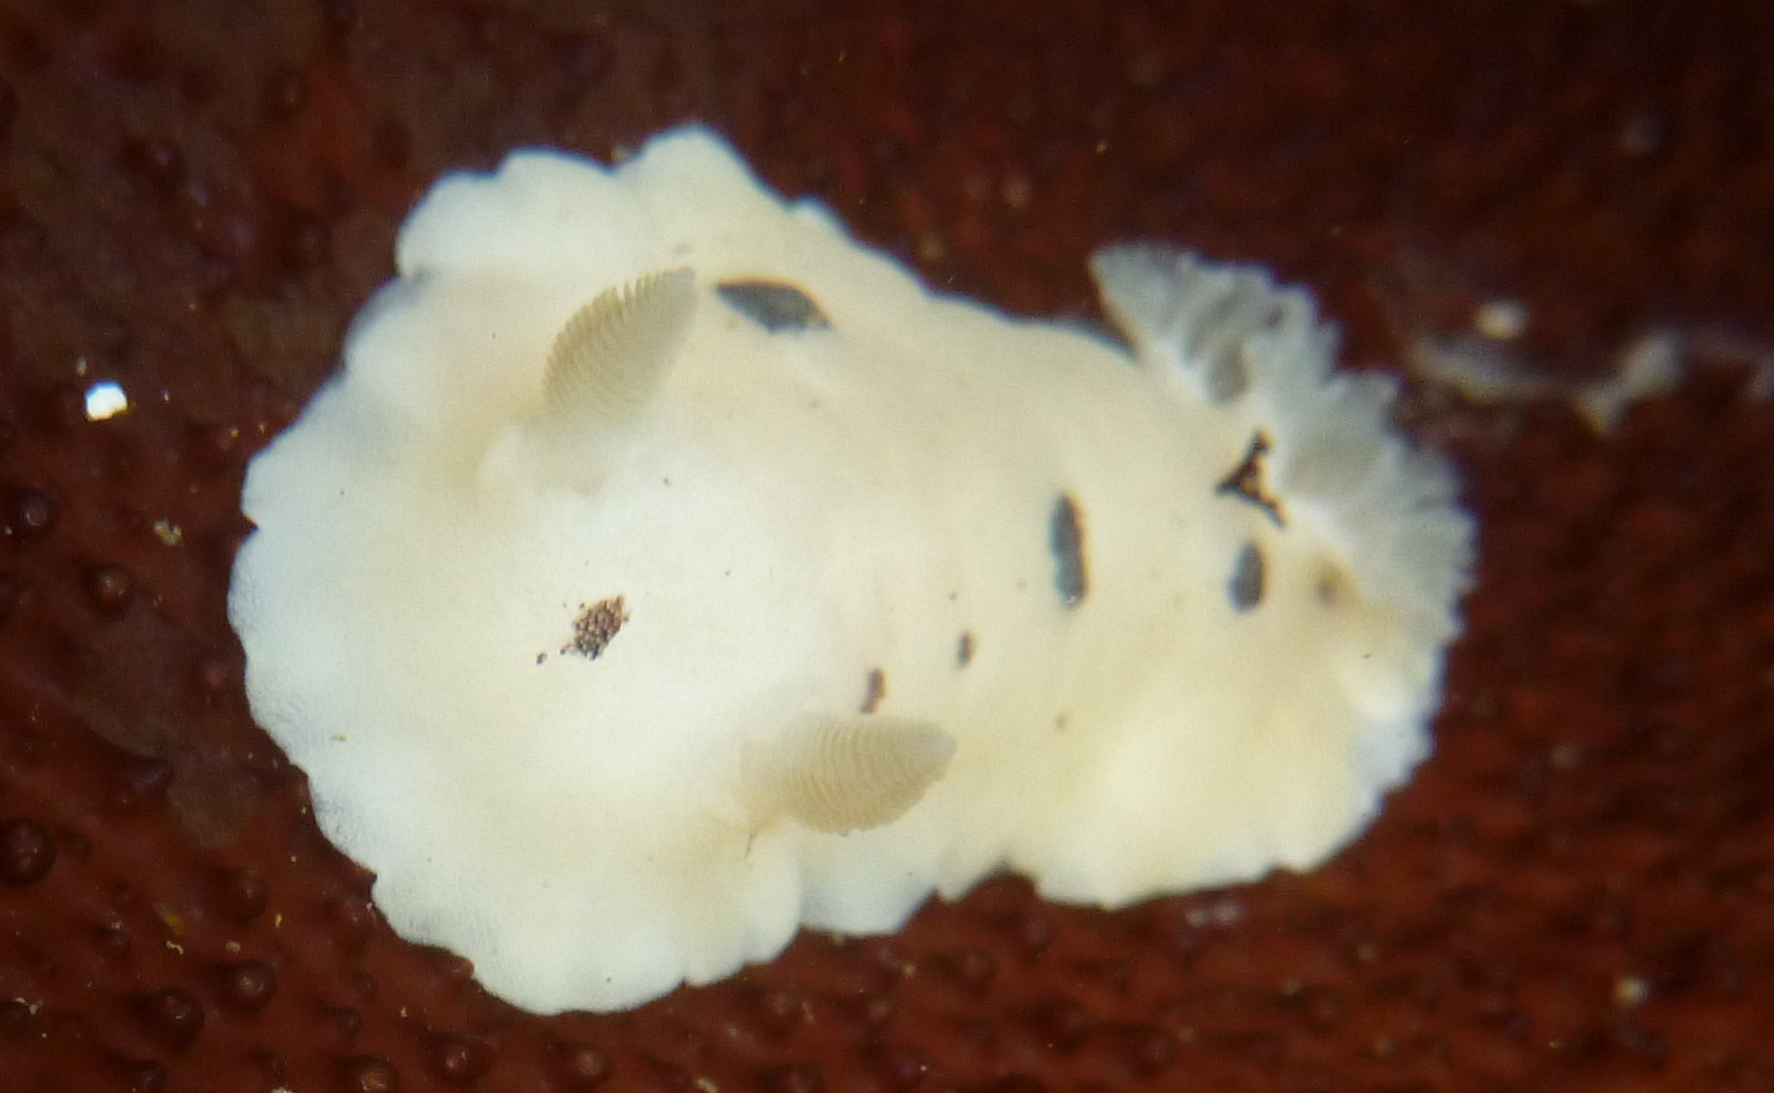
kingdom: Animalia
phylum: Mollusca
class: Gastropoda
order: Nudibranchia
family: Discodorididae
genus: Diaulula
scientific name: Diaulula sandiegensis
